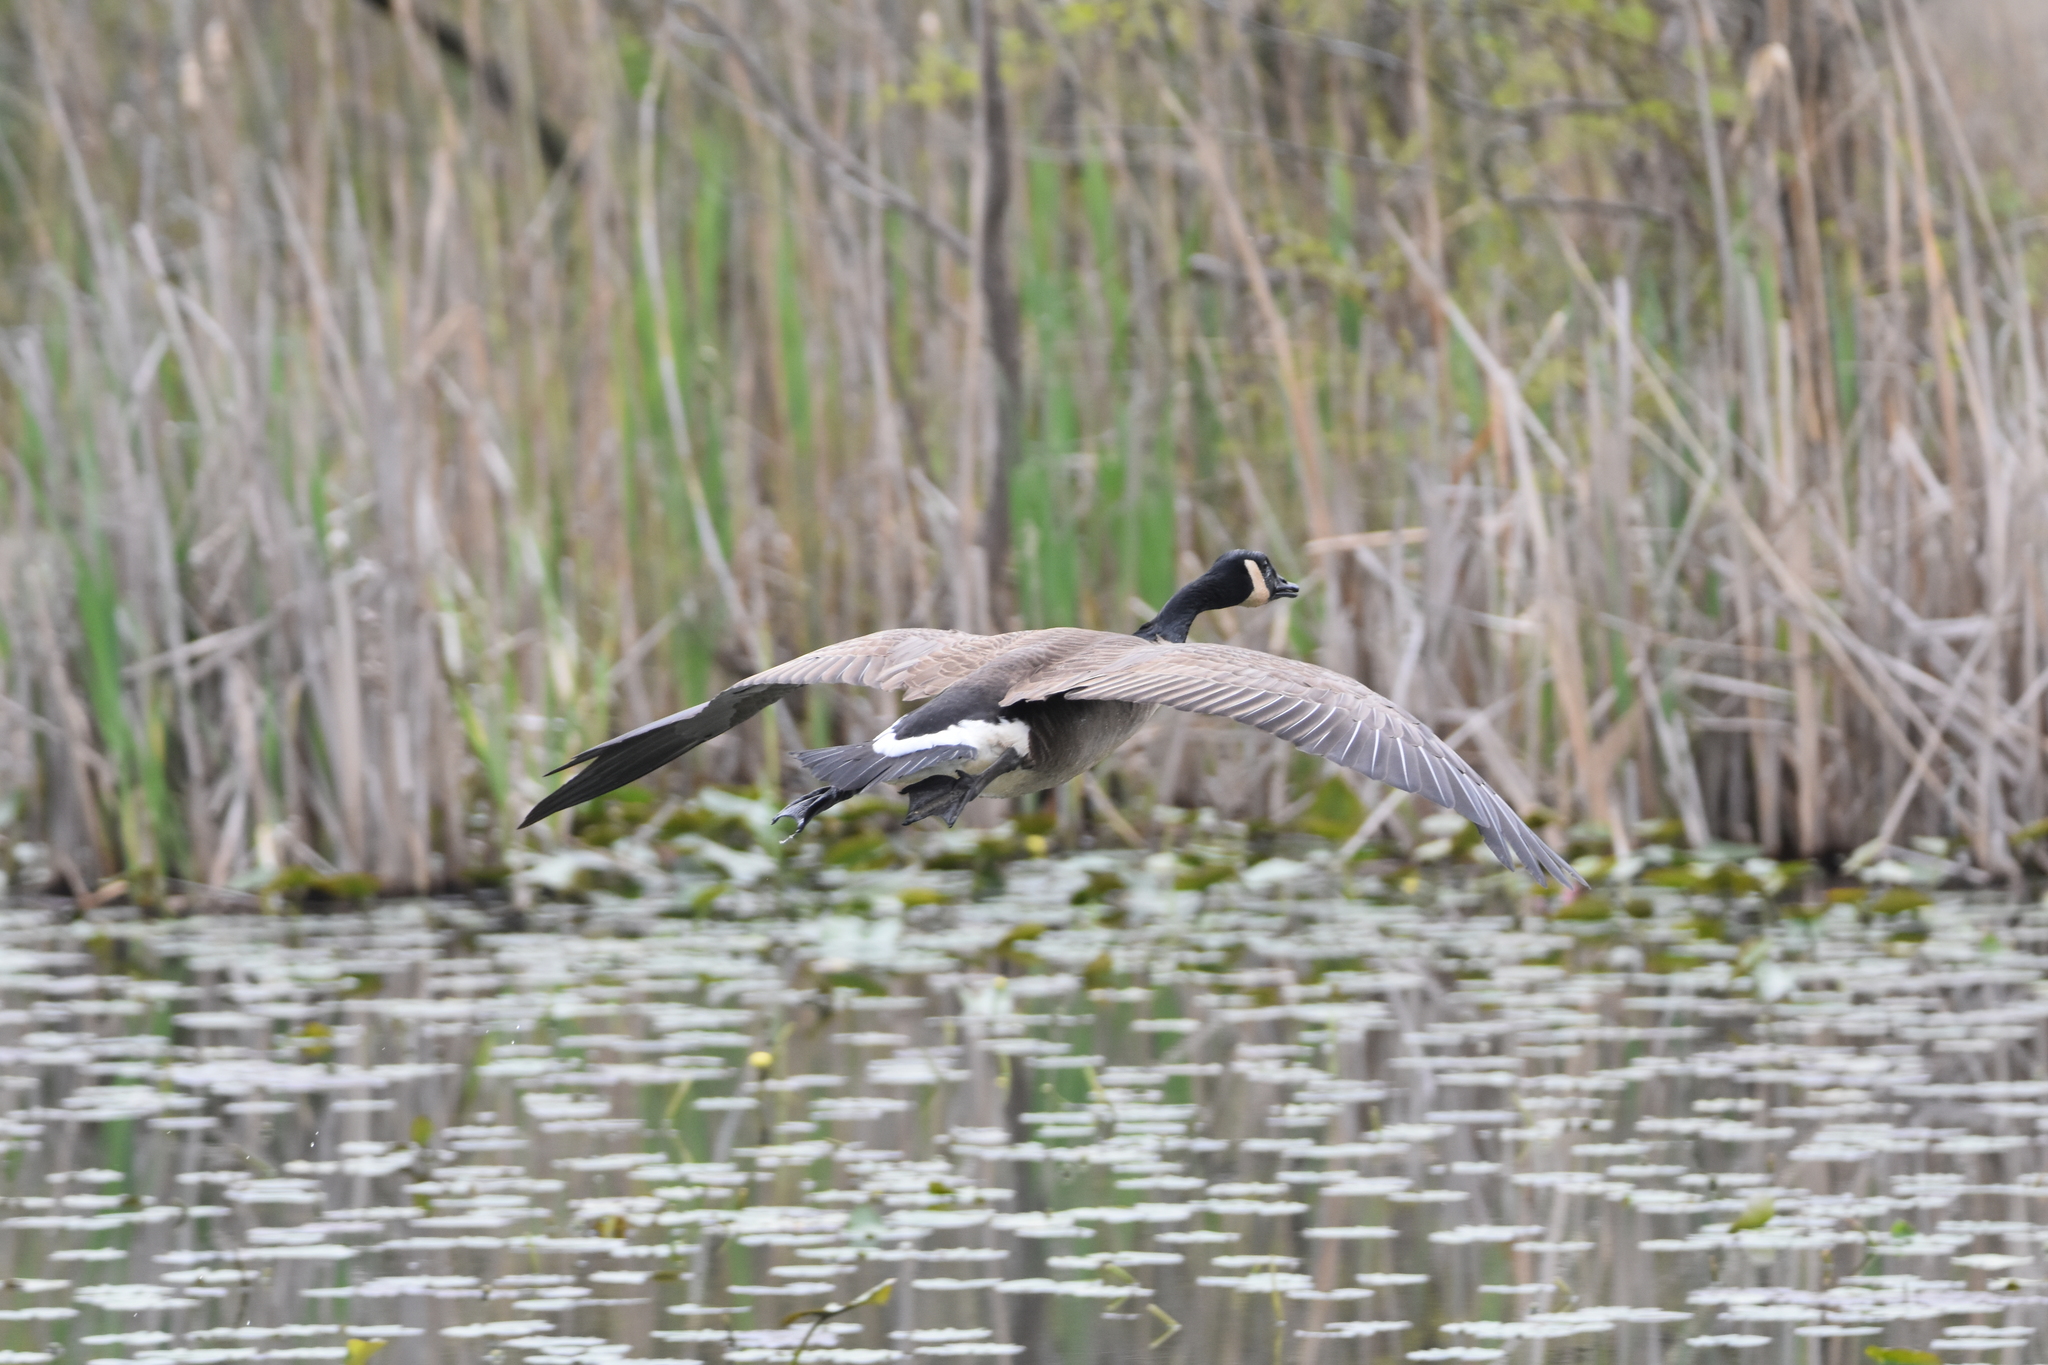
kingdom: Animalia
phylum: Chordata
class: Aves
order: Anseriformes
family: Anatidae
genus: Branta
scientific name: Branta canadensis
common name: Canada goose
